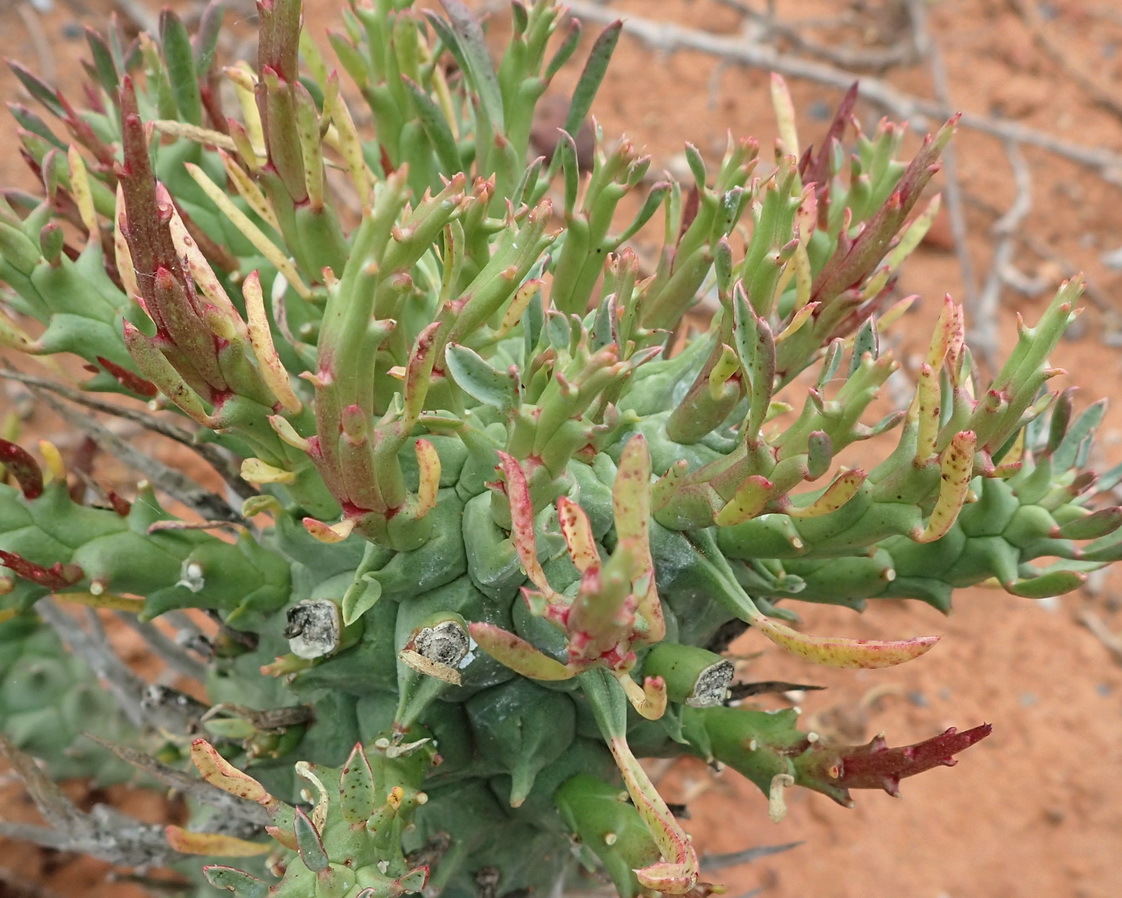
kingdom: Plantae
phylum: Tracheophyta
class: Magnoliopsida
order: Malpighiales
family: Euphorbiaceae
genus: Euphorbia
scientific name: Euphorbia schoenlandii
